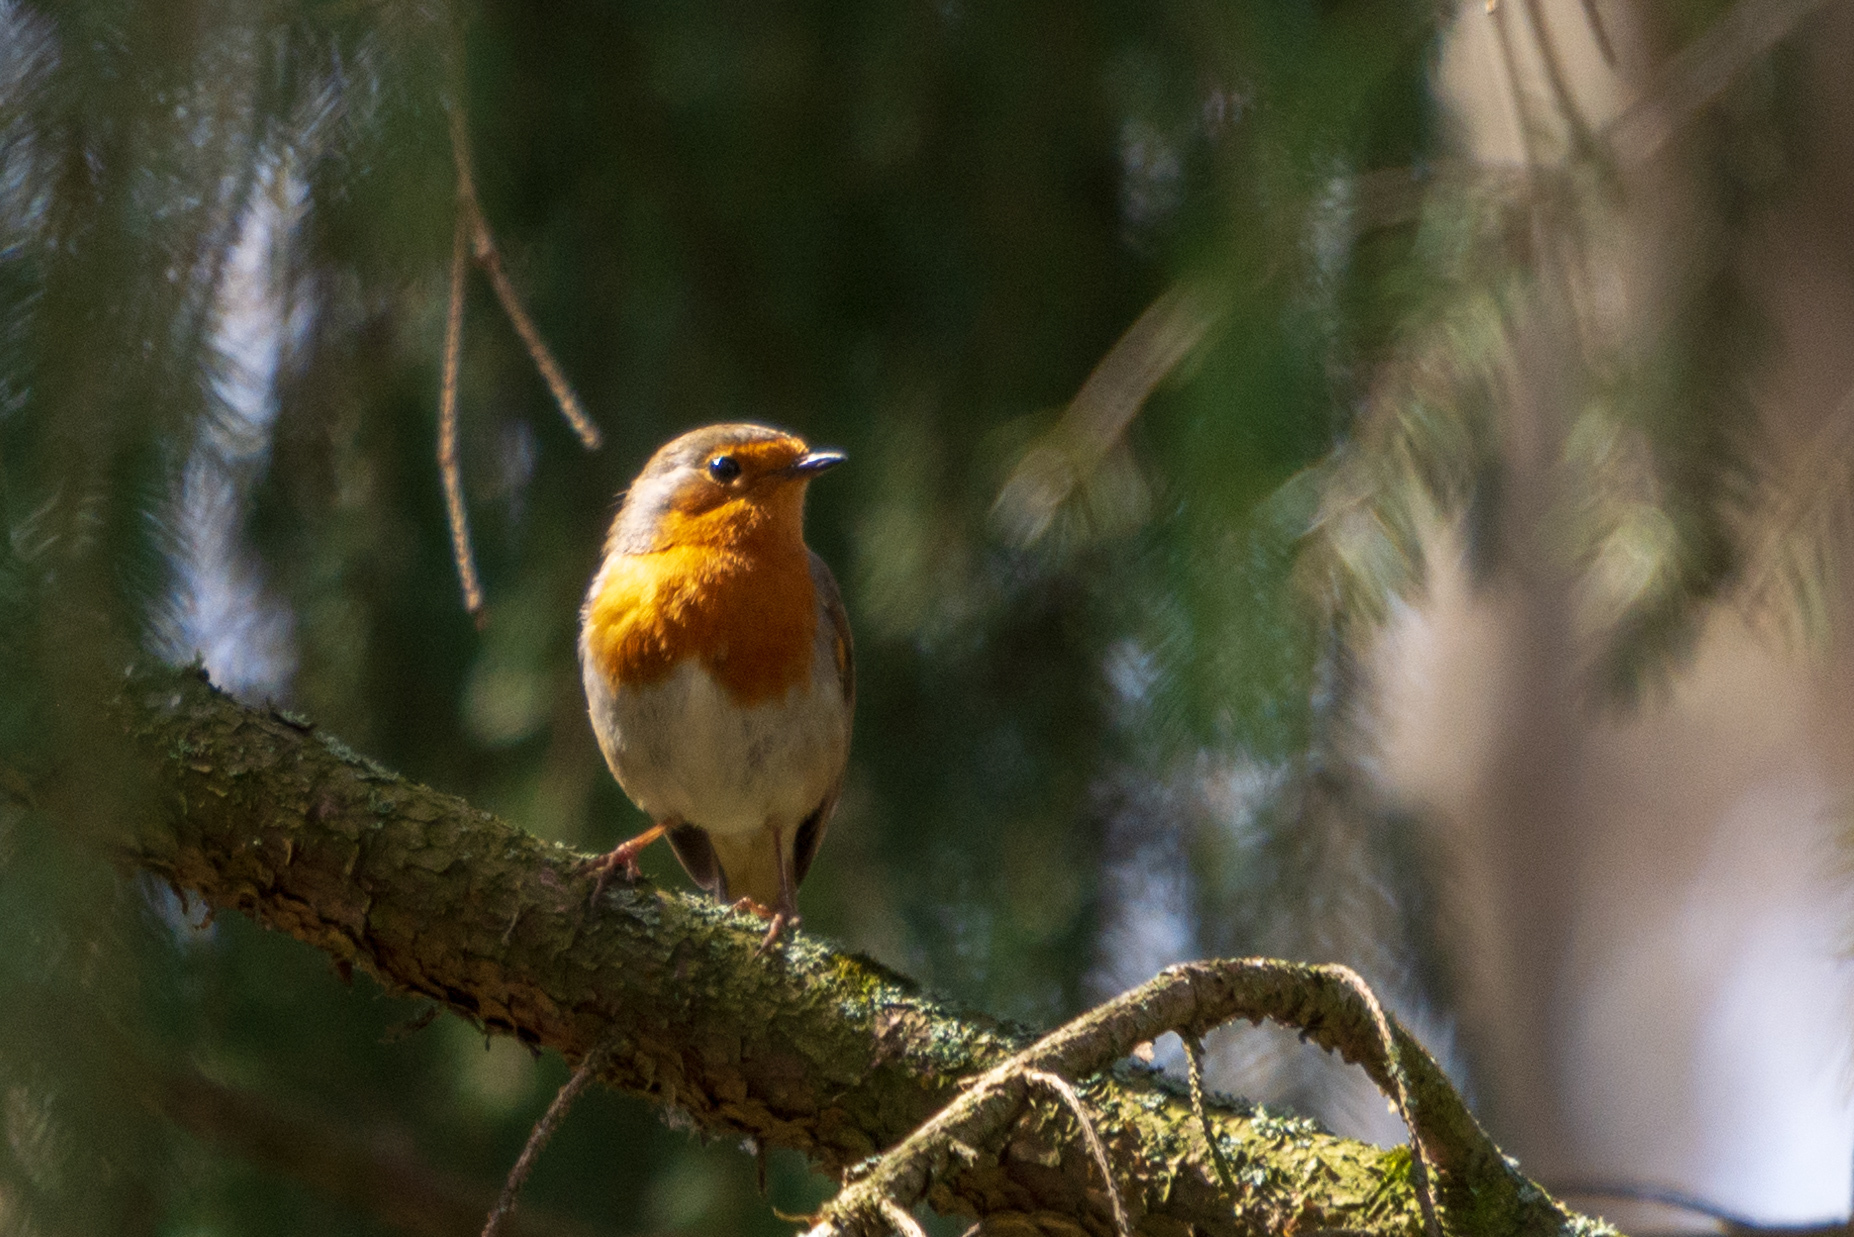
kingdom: Animalia
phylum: Chordata
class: Aves
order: Passeriformes
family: Muscicapidae
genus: Erithacus
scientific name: Erithacus rubecula
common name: European robin
